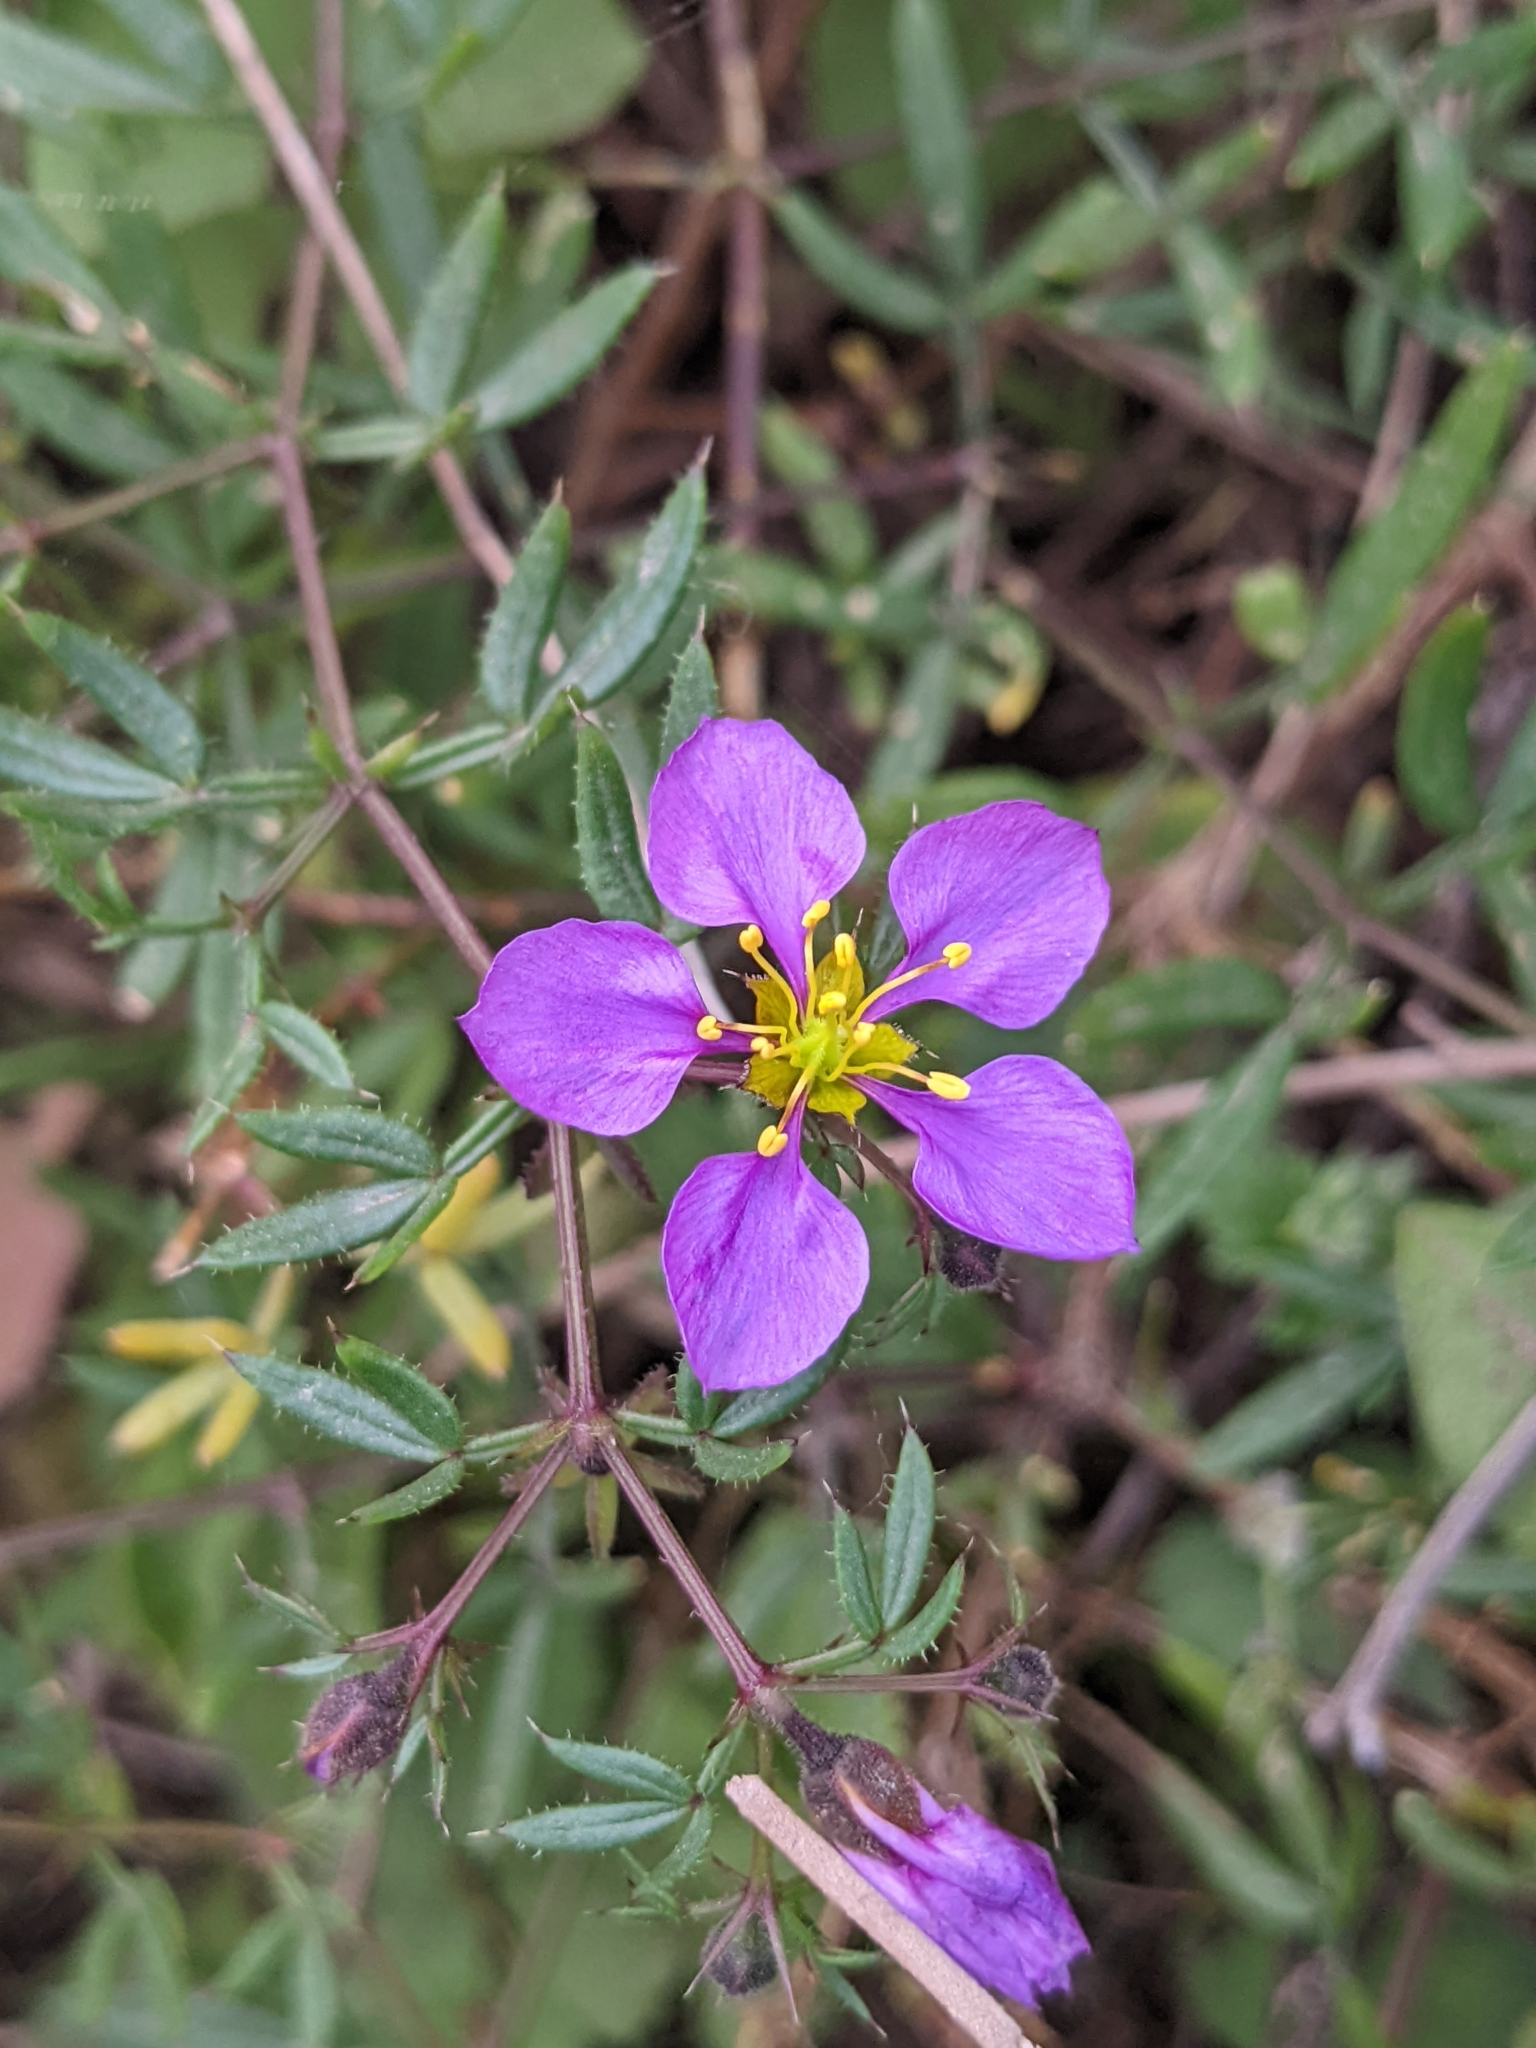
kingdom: Plantae
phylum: Tracheophyta
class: Magnoliopsida
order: Zygophyllales
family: Zygophyllaceae
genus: Fagonia
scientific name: Fagonia cretica
